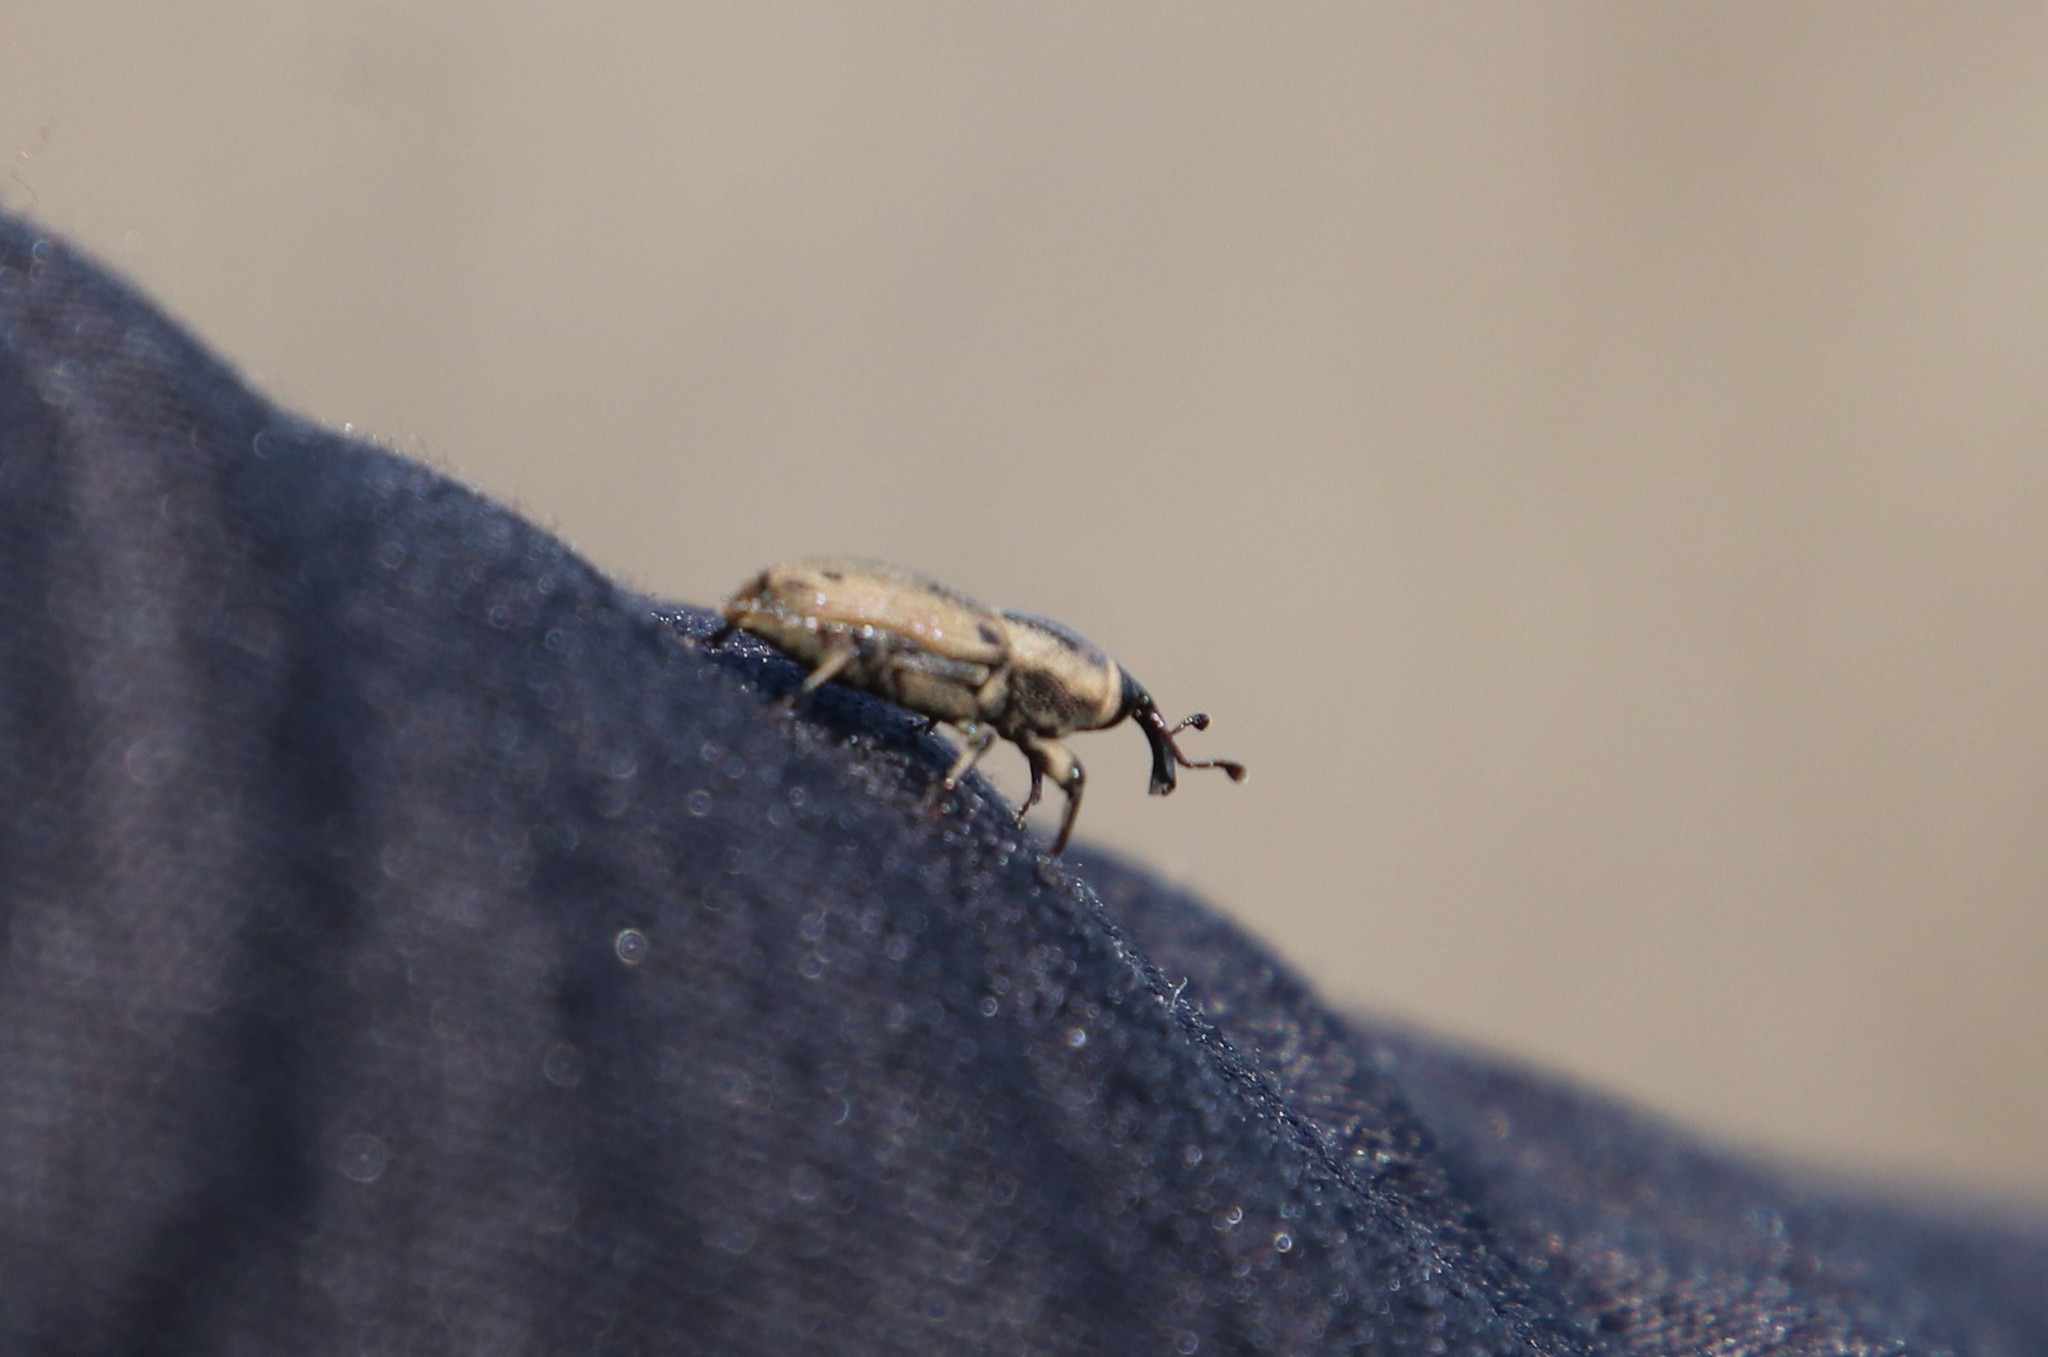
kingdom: Animalia
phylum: Arthropoda
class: Insecta
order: Coleoptera
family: Dryophthoridae
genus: Sphenophorus
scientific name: Sphenophorus venatus
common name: Hunting billbug
